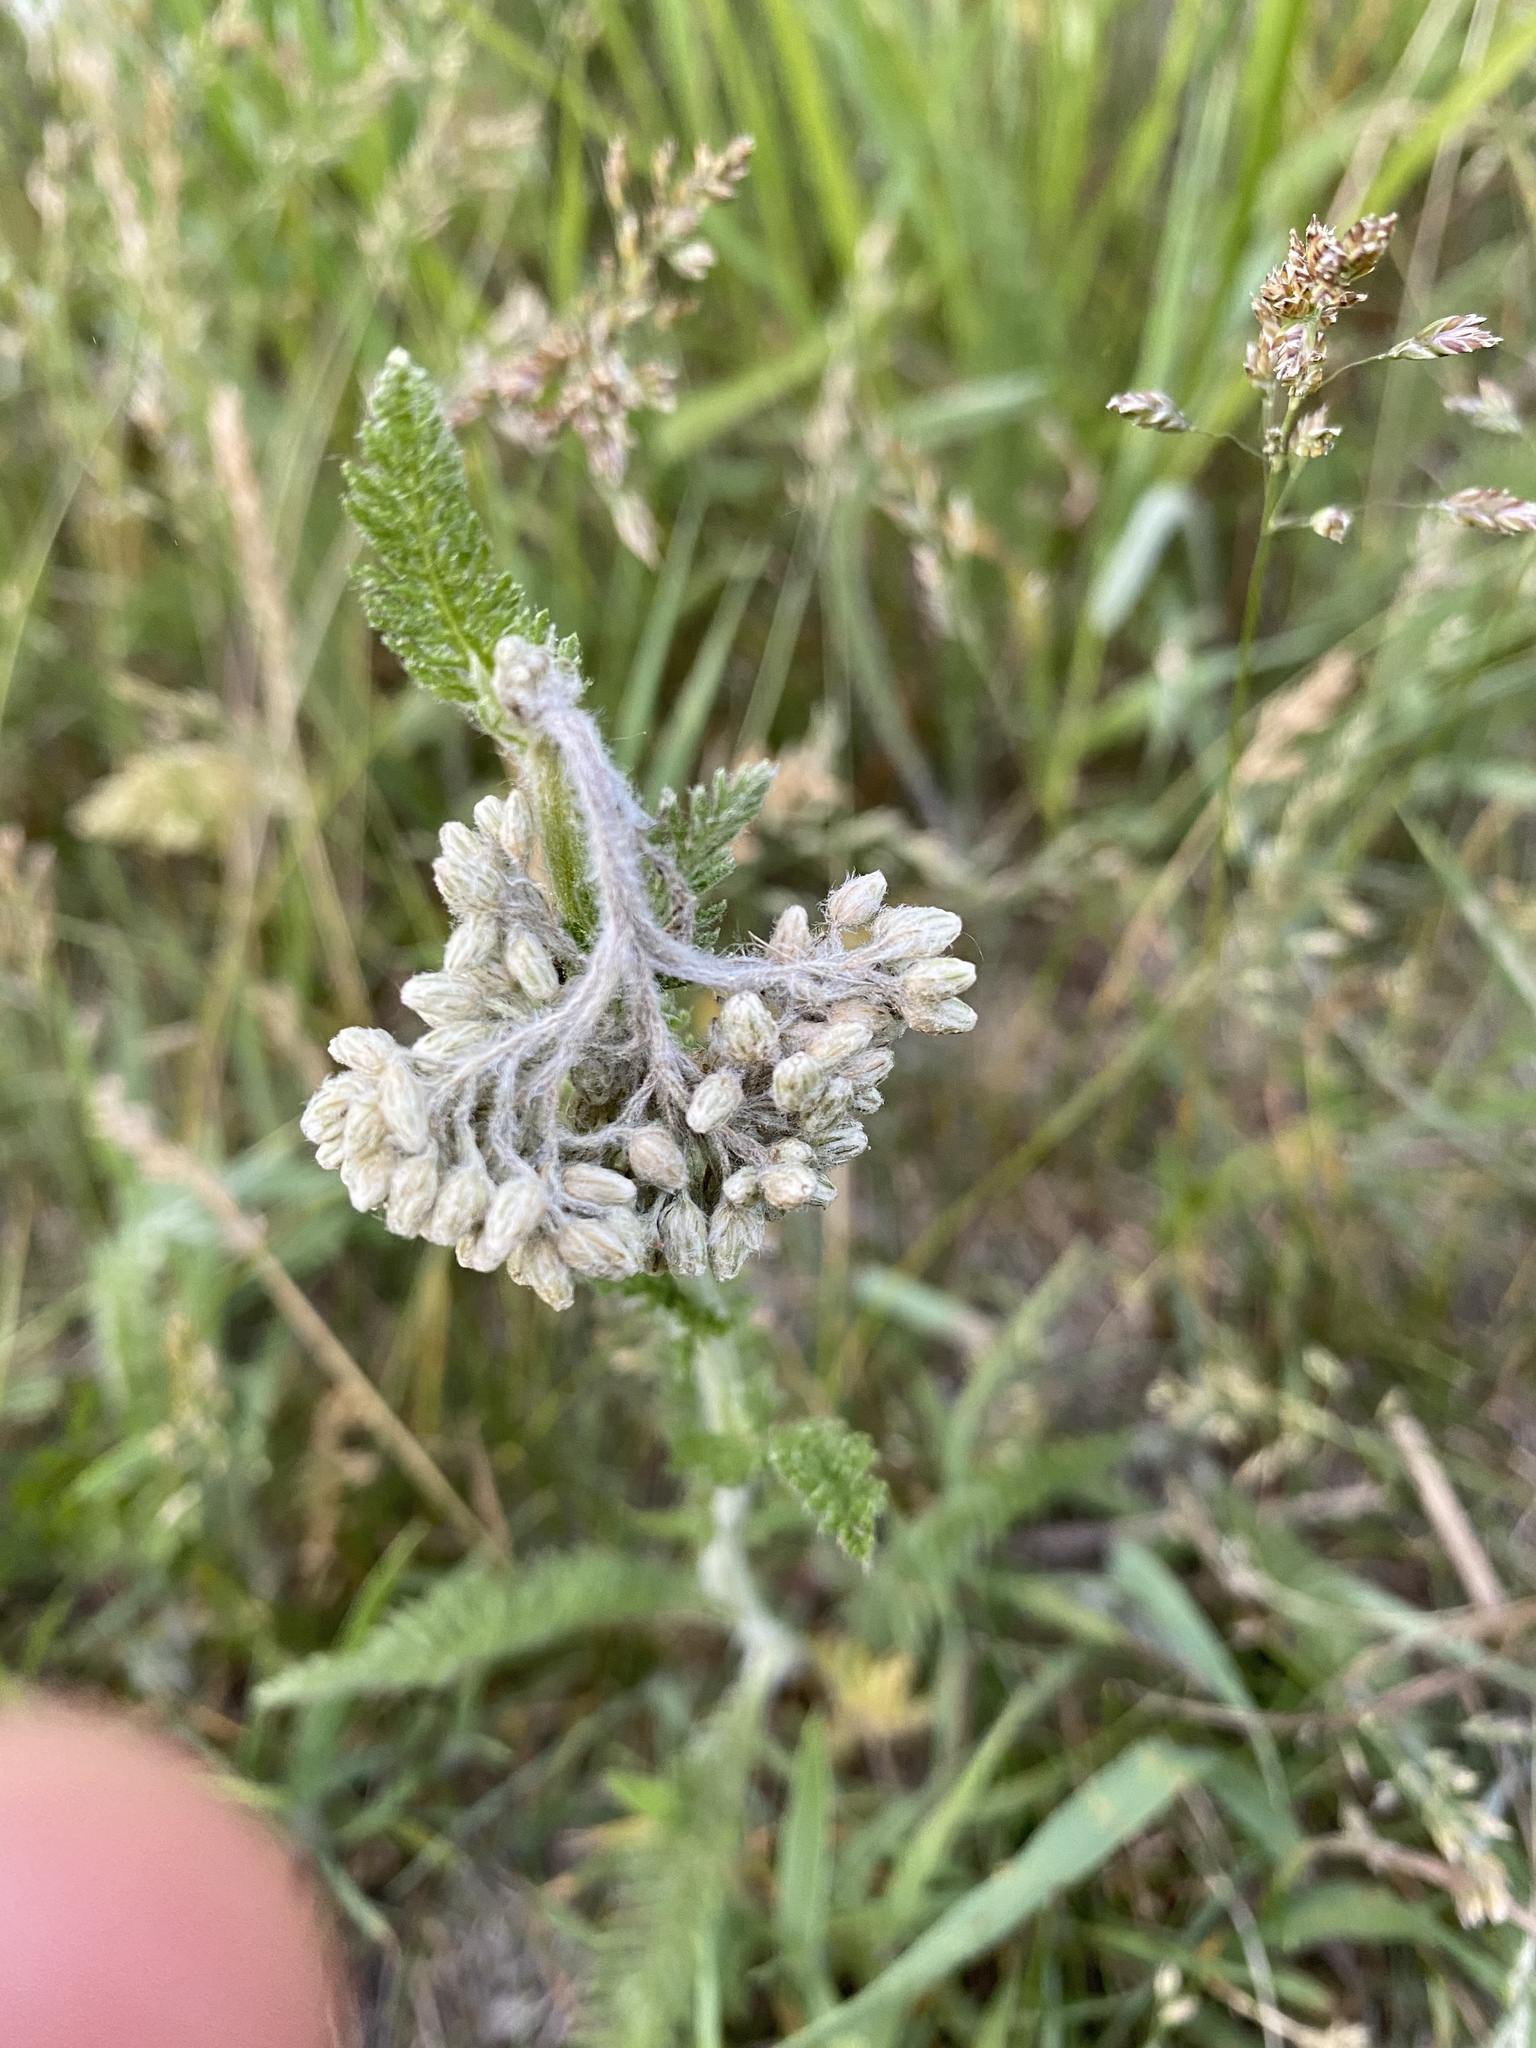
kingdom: Plantae
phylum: Tracheophyta
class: Magnoliopsida
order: Asterales
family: Asteraceae
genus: Achillea
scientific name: Achillea millefolium
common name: Yarrow
